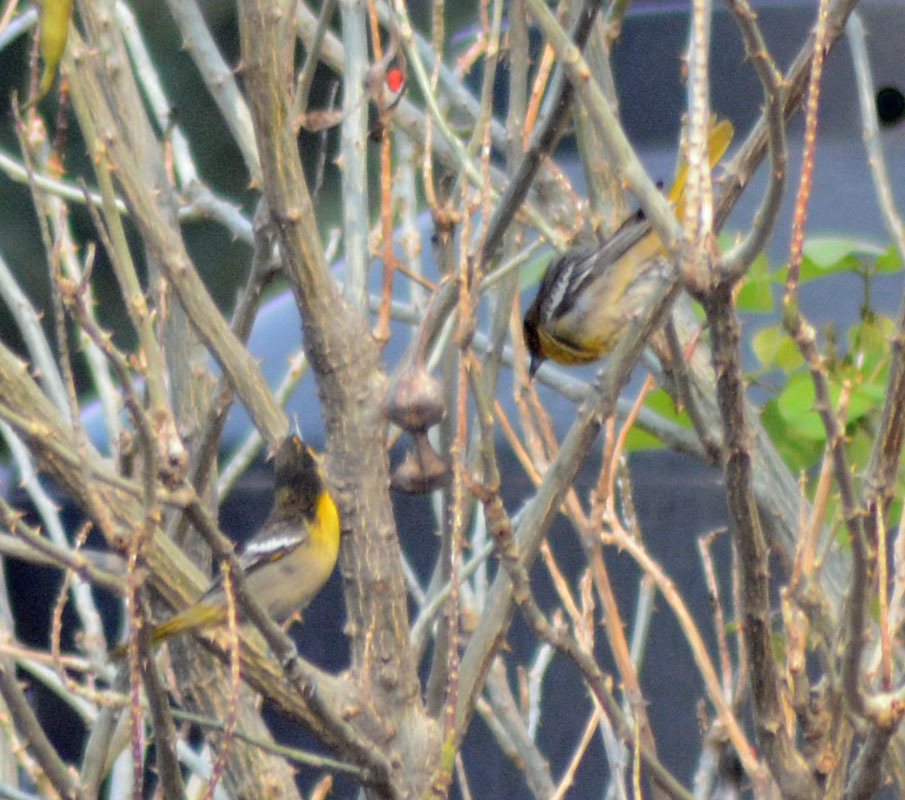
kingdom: Animalia
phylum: Chordata
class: Aves
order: Passeriformes
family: Icteridae
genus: Icterus
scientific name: Icterus abeillei
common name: Black-backed oriole
